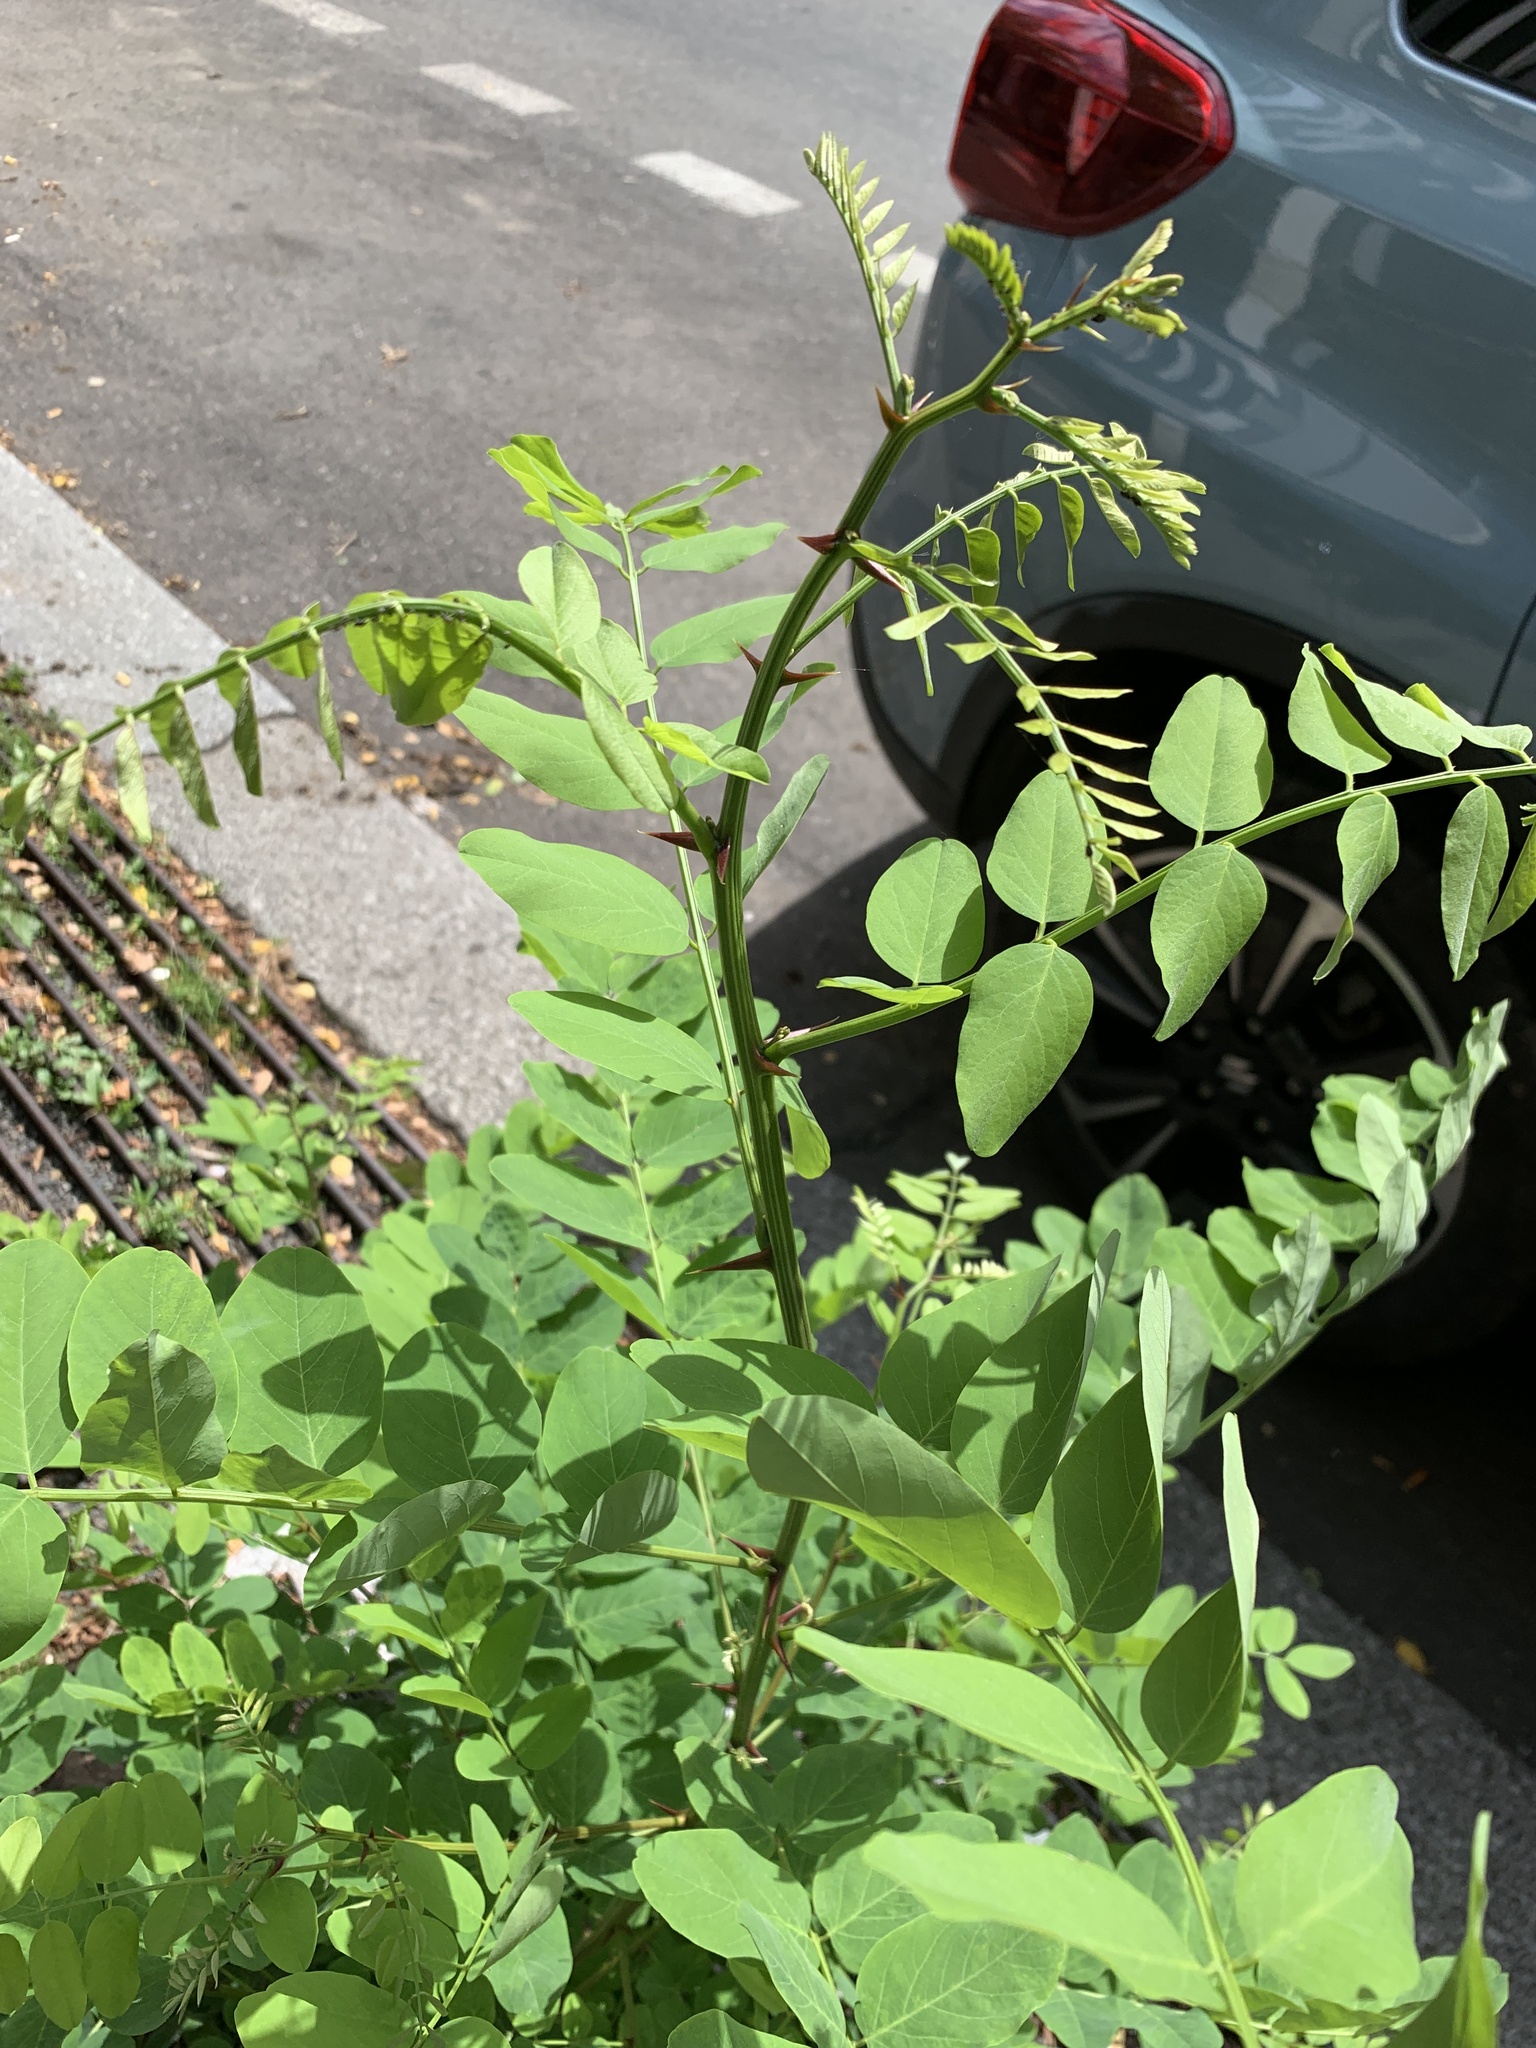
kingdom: Plantae
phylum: Tracheophyta
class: Magnoliopsida
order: Fabales
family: Fabaceae
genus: Robinia
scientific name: Robinia pseudoacacia
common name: Black locust
